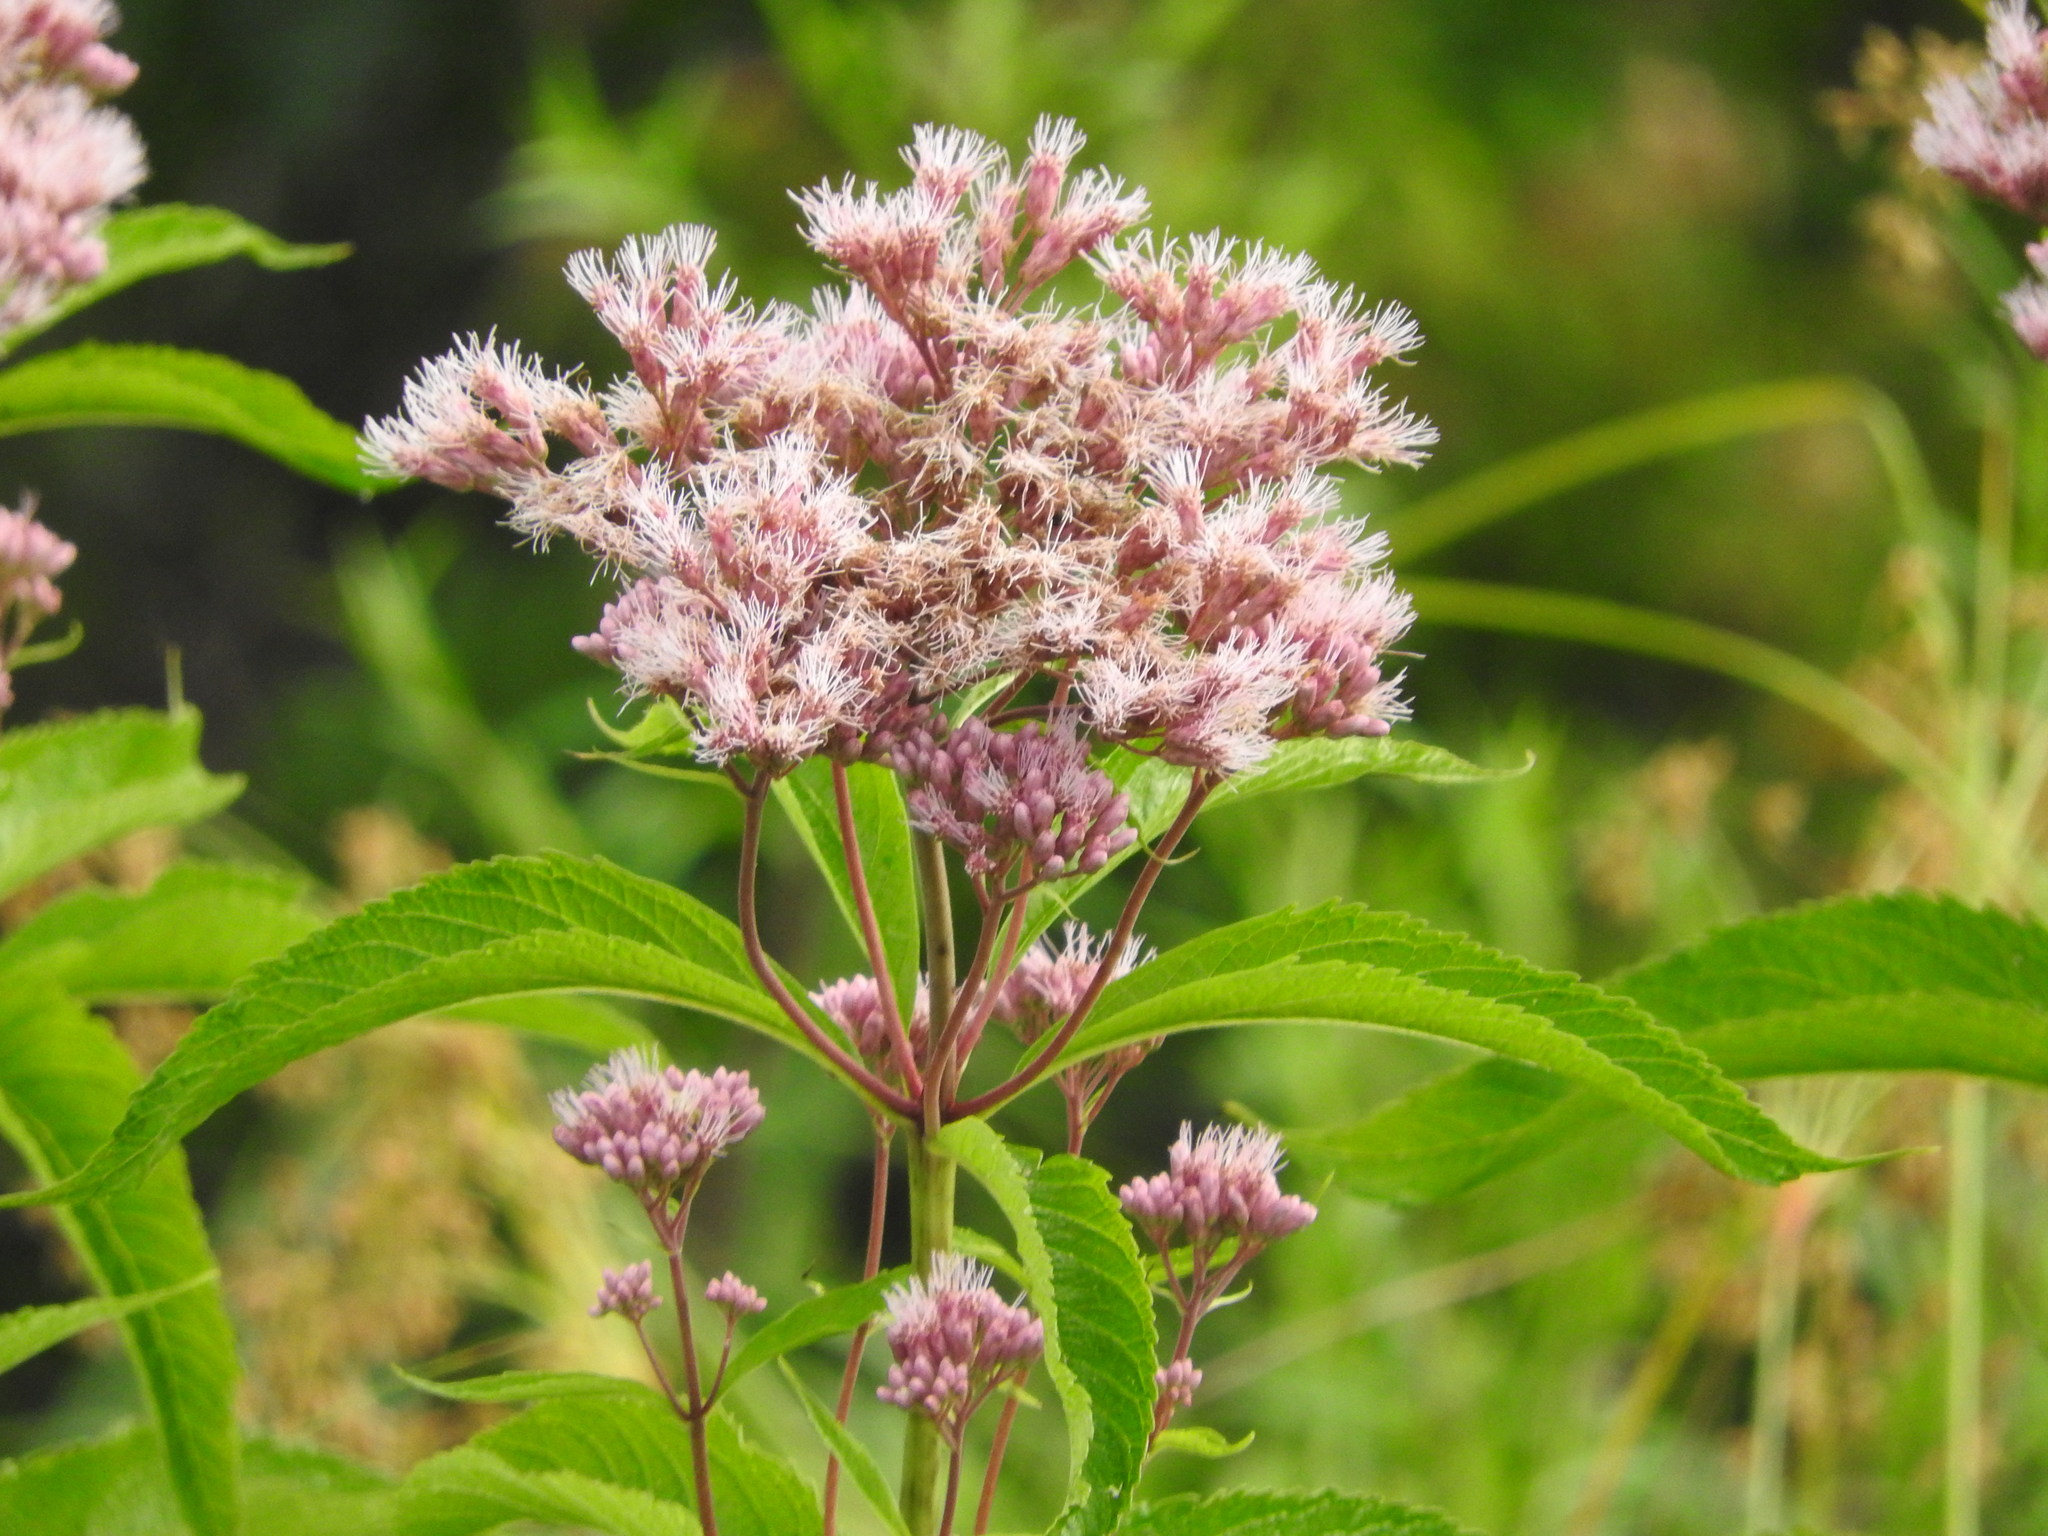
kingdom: Plantae
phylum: Tracheophyta
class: Magnoliopsida
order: Asterales
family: Asteraceae
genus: Eutrochium
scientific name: Eutrochium maculatum
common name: Spotted joe pye weed
